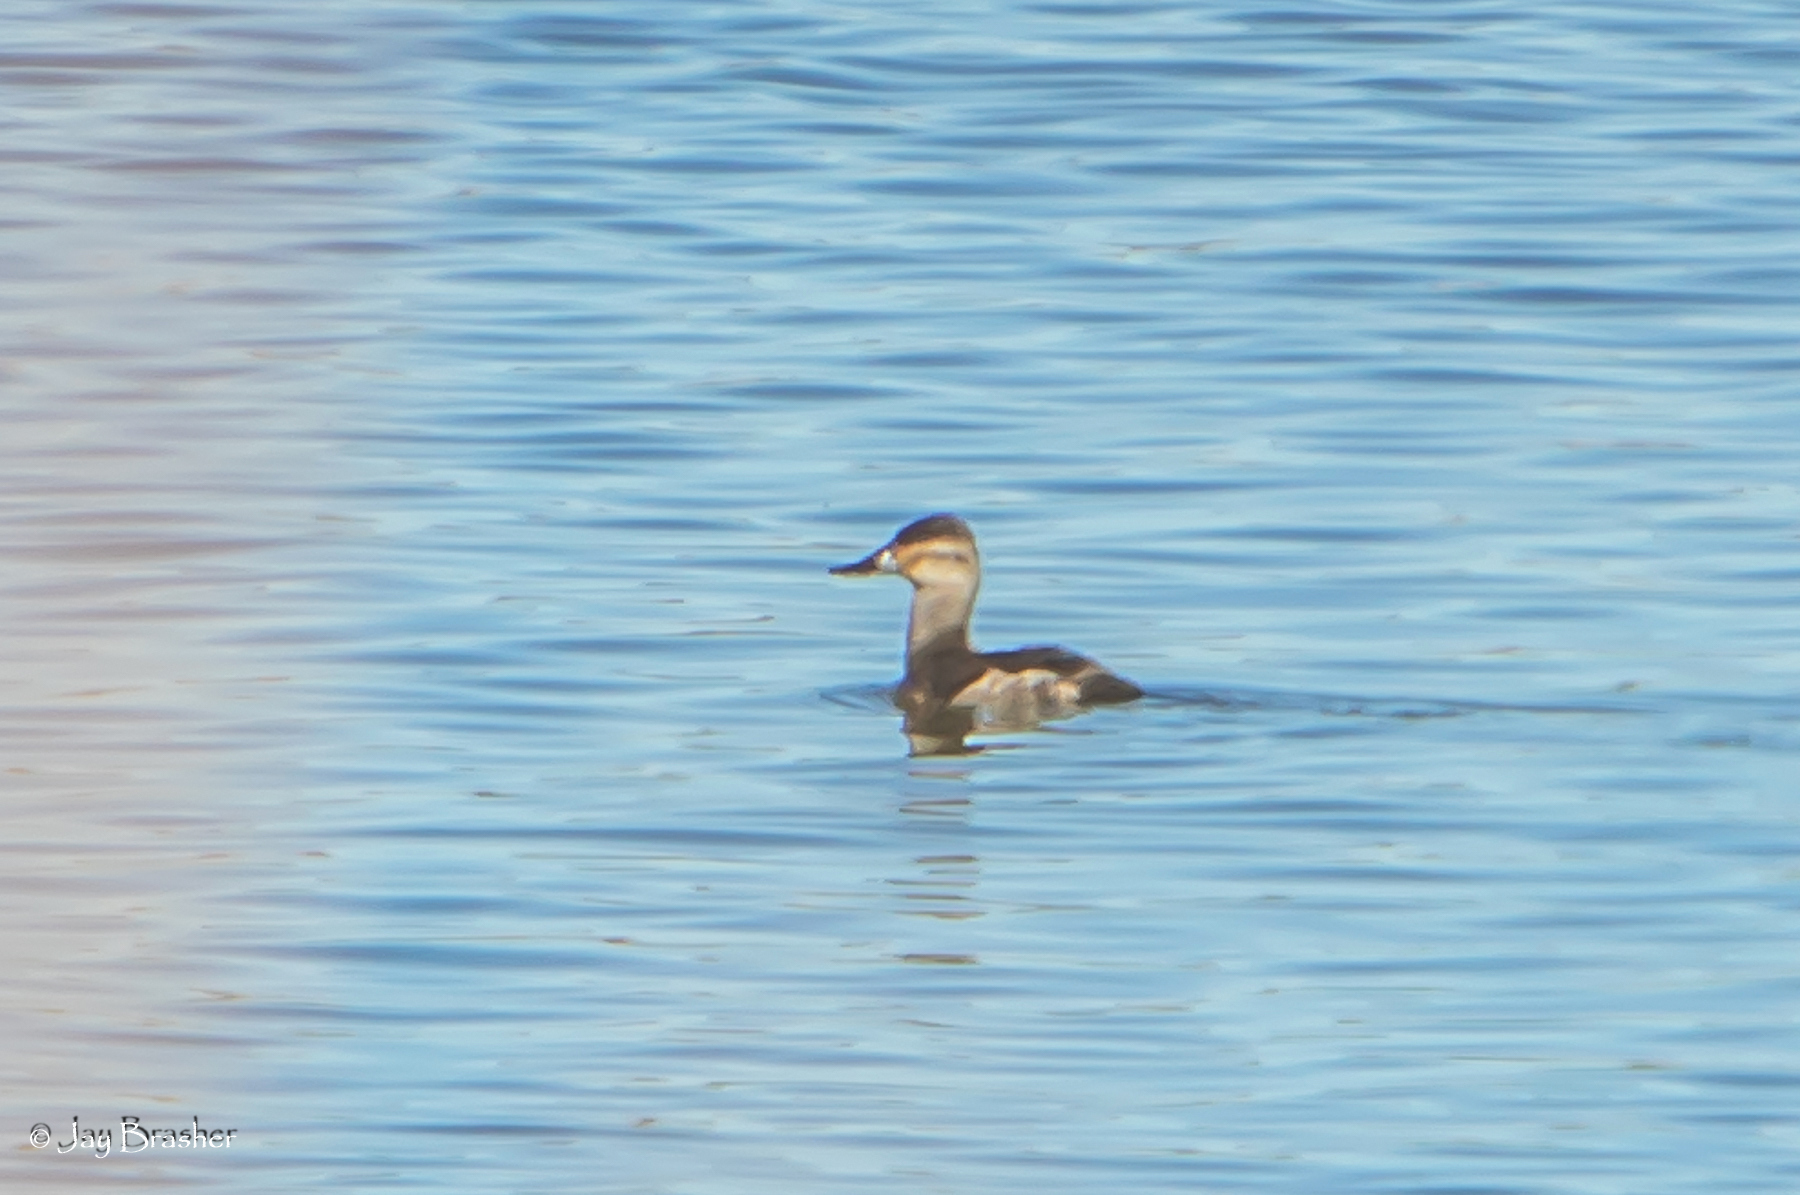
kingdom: Animalia
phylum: Chordata
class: Aves
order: Anseriformes
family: Anatidae
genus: Oxyura
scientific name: Oxyura jamaicensis
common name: Ruddy duck
